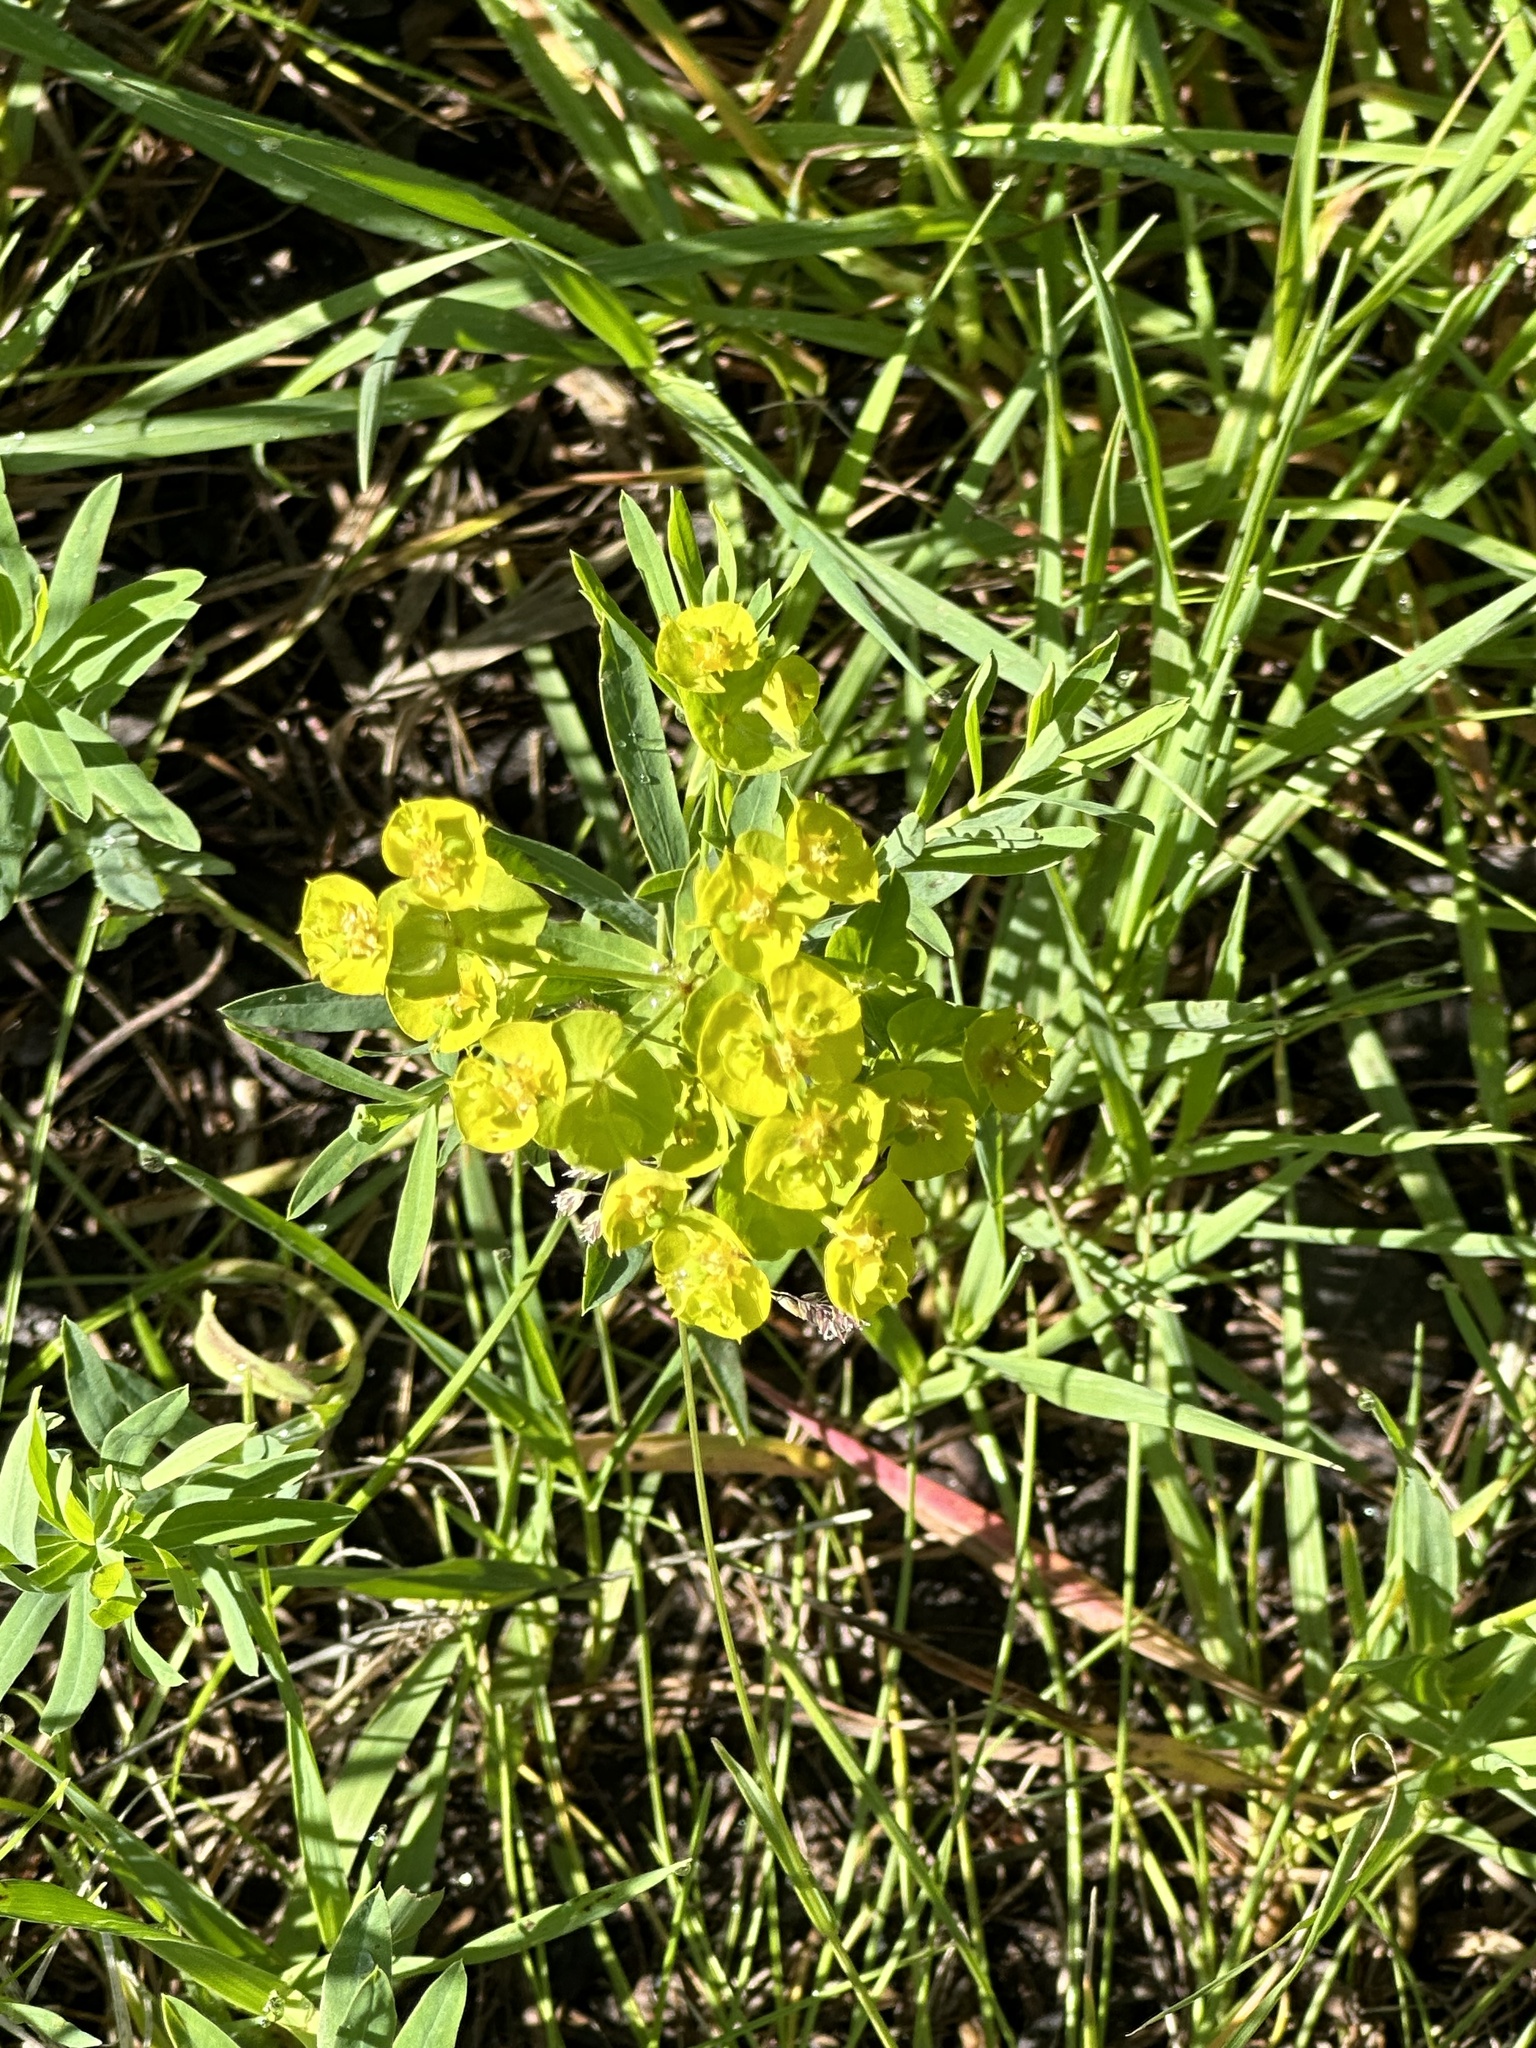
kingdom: Plantae
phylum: Tracheophyta
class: Magnoliopsida
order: Malpighiales
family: Euphorbiaceae
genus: Euphorbia
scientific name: Euphorbia virgata
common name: Leafy spurge
